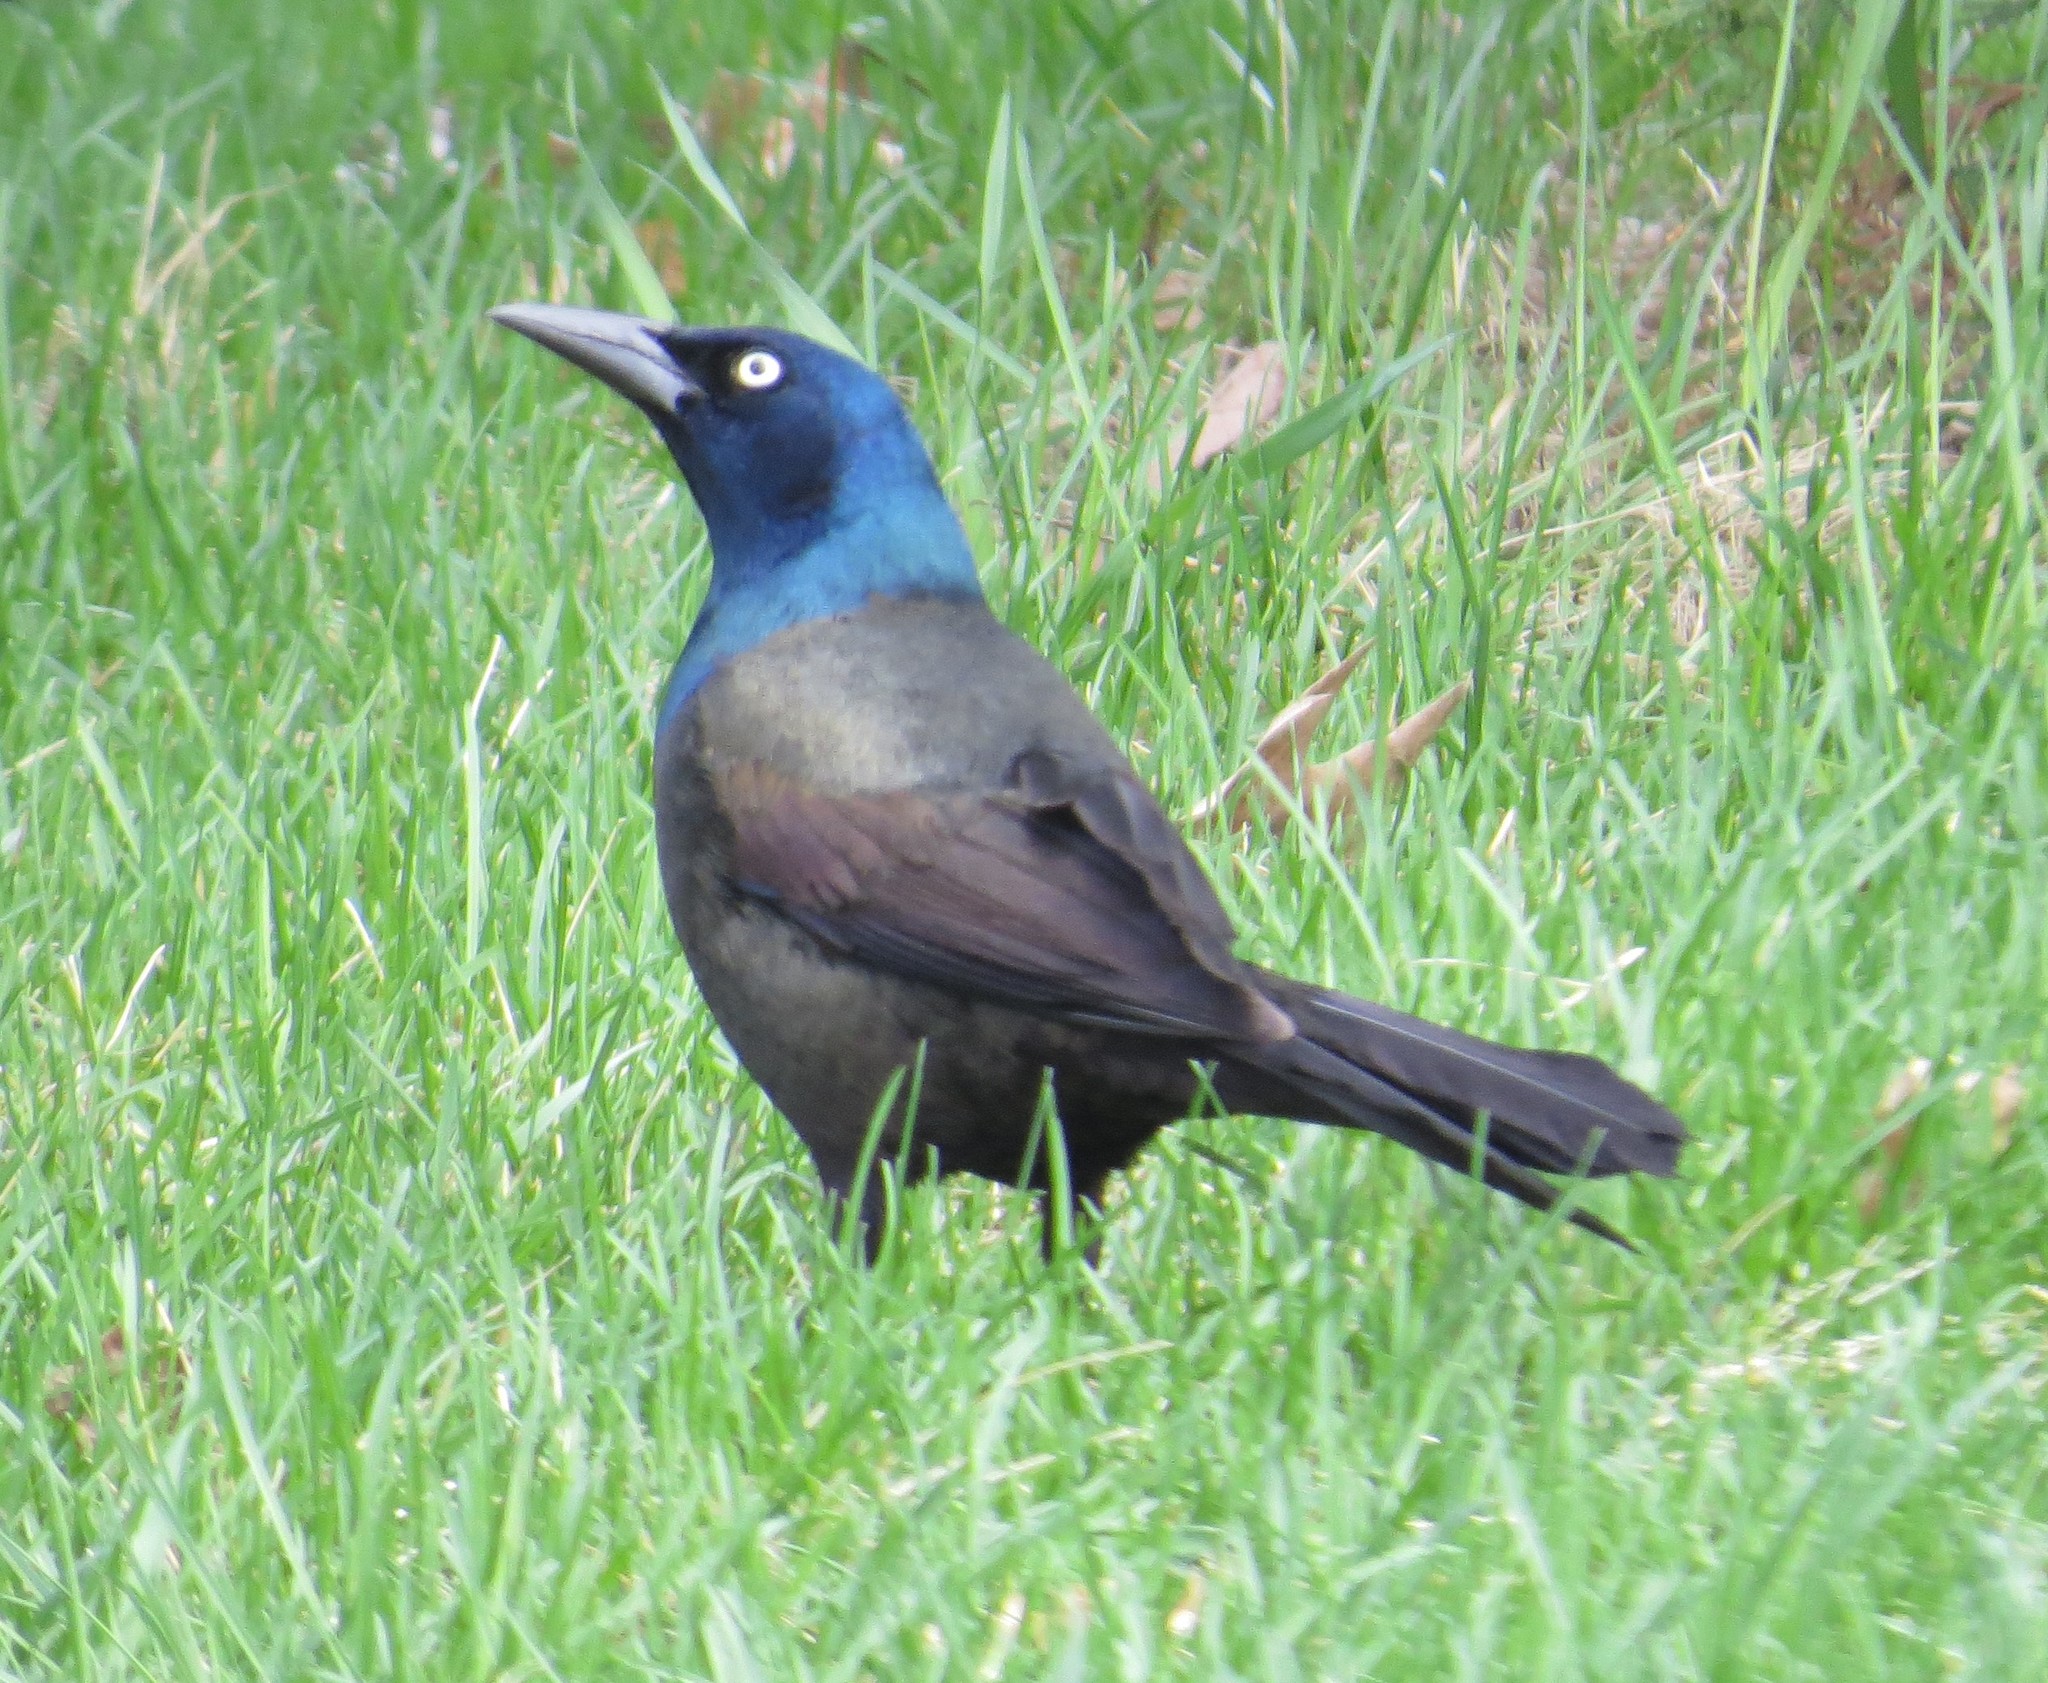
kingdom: Animalia
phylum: Chordata
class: Aves
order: Passeriformes
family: Icteridae
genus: Quiscalus
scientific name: Quiscalus quiscula
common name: Common grackle
